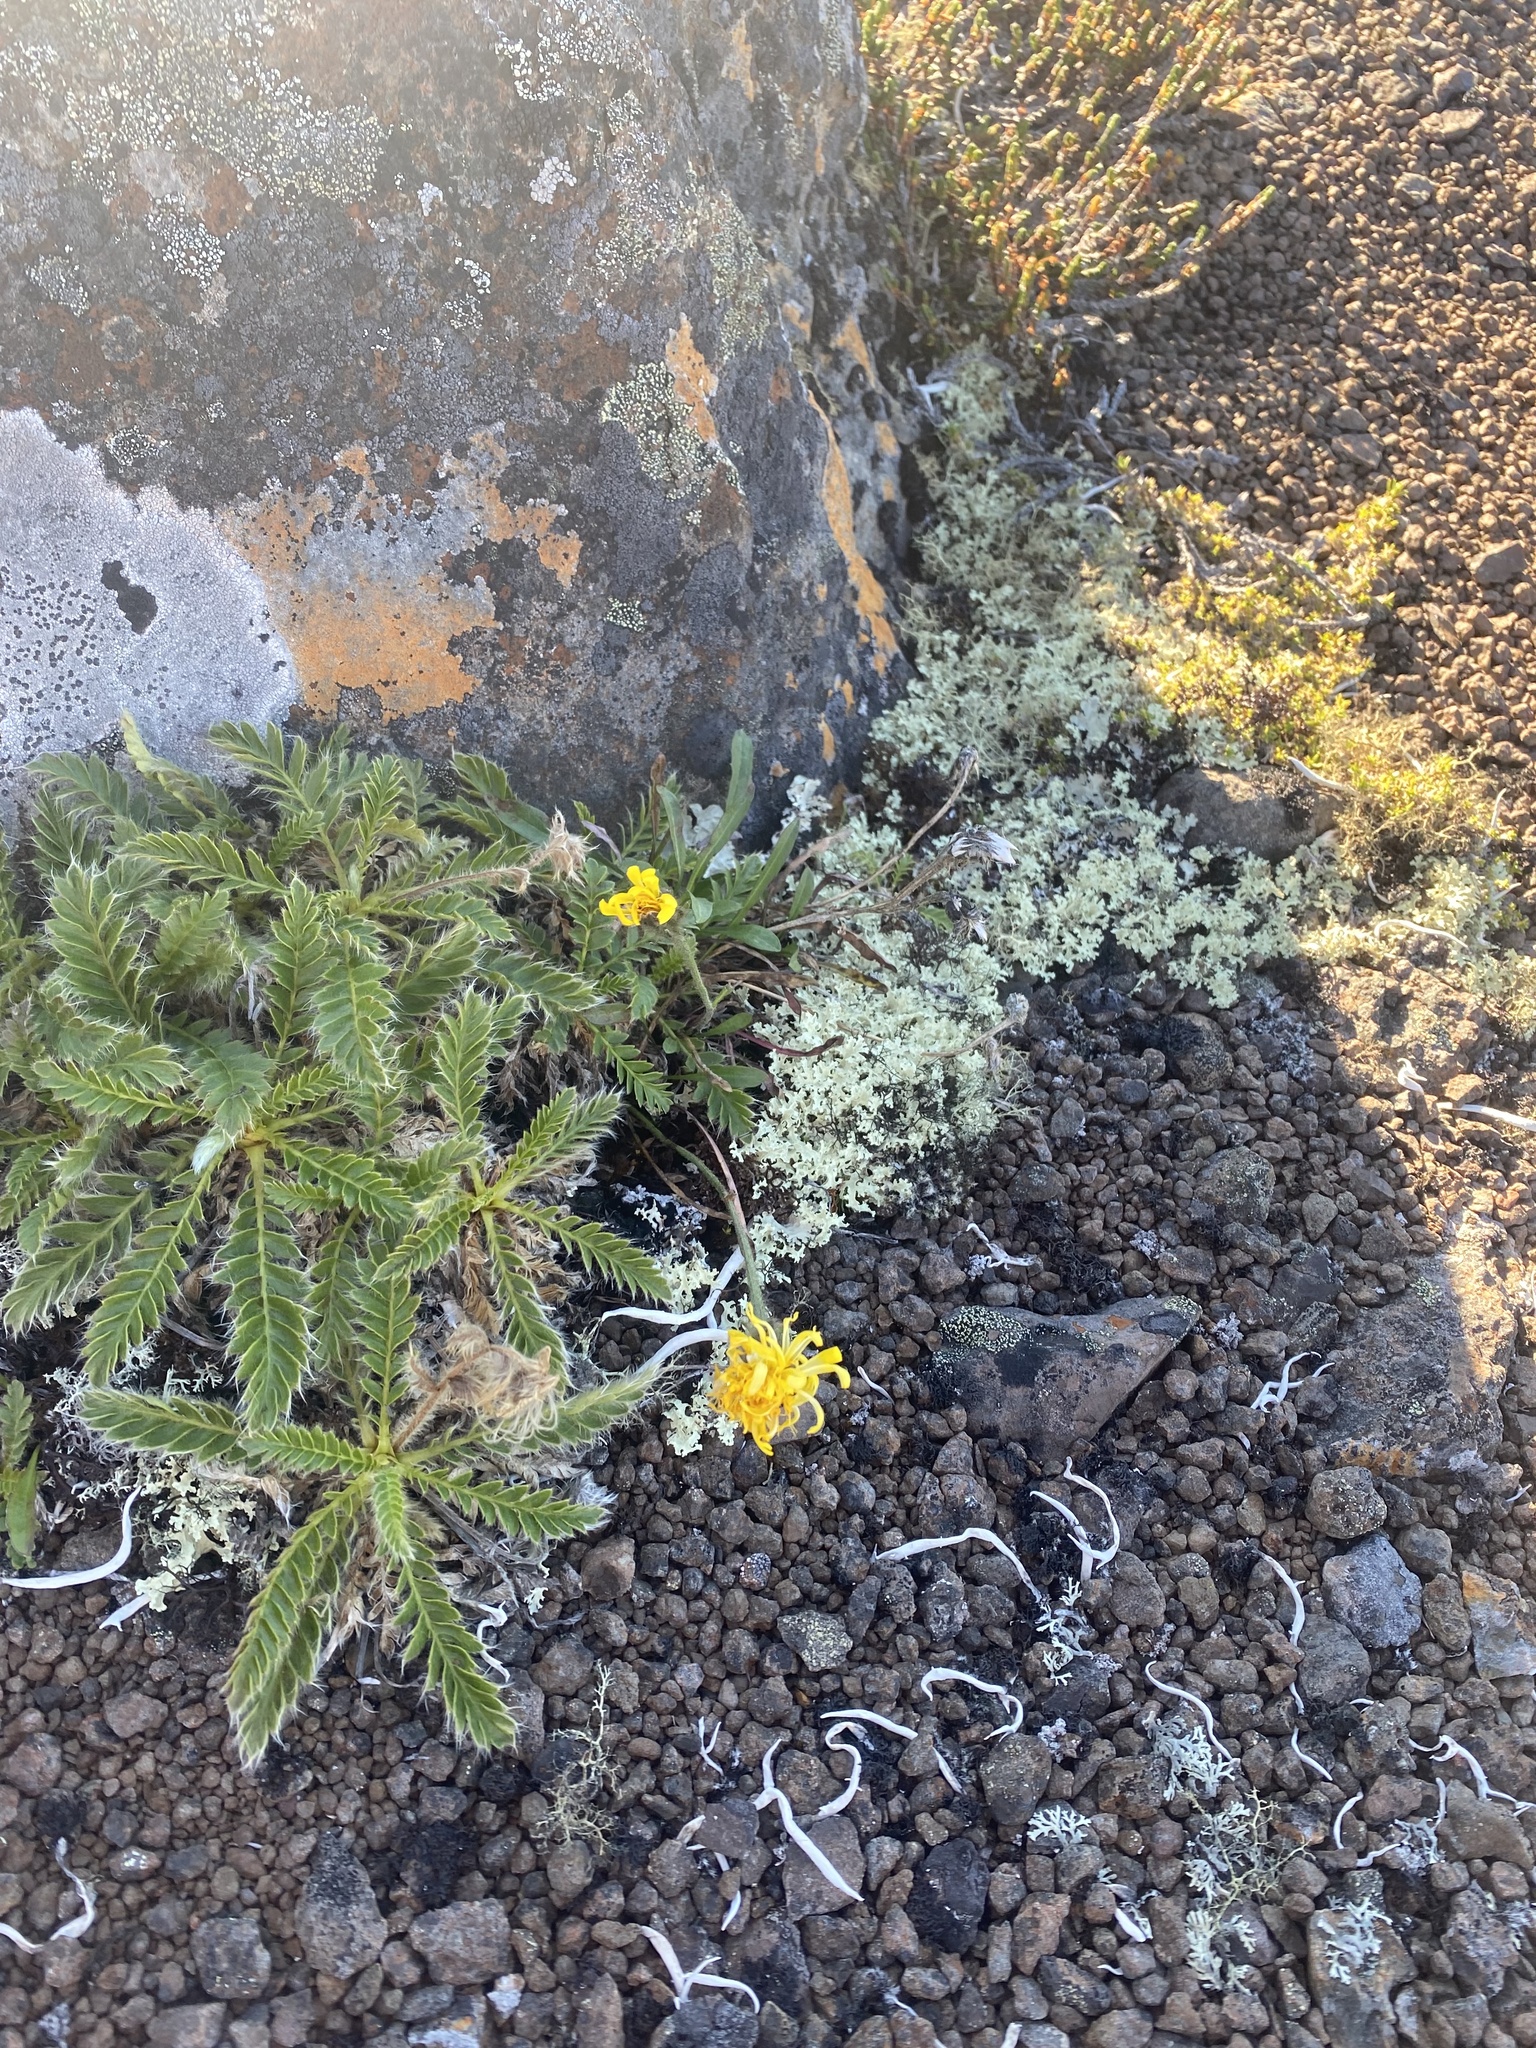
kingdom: Plantae
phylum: Tracheophyta
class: Magnoliopsida
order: Rosales
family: Rosaceae
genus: Geum
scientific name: Geum glaciale
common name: Glacier avens
